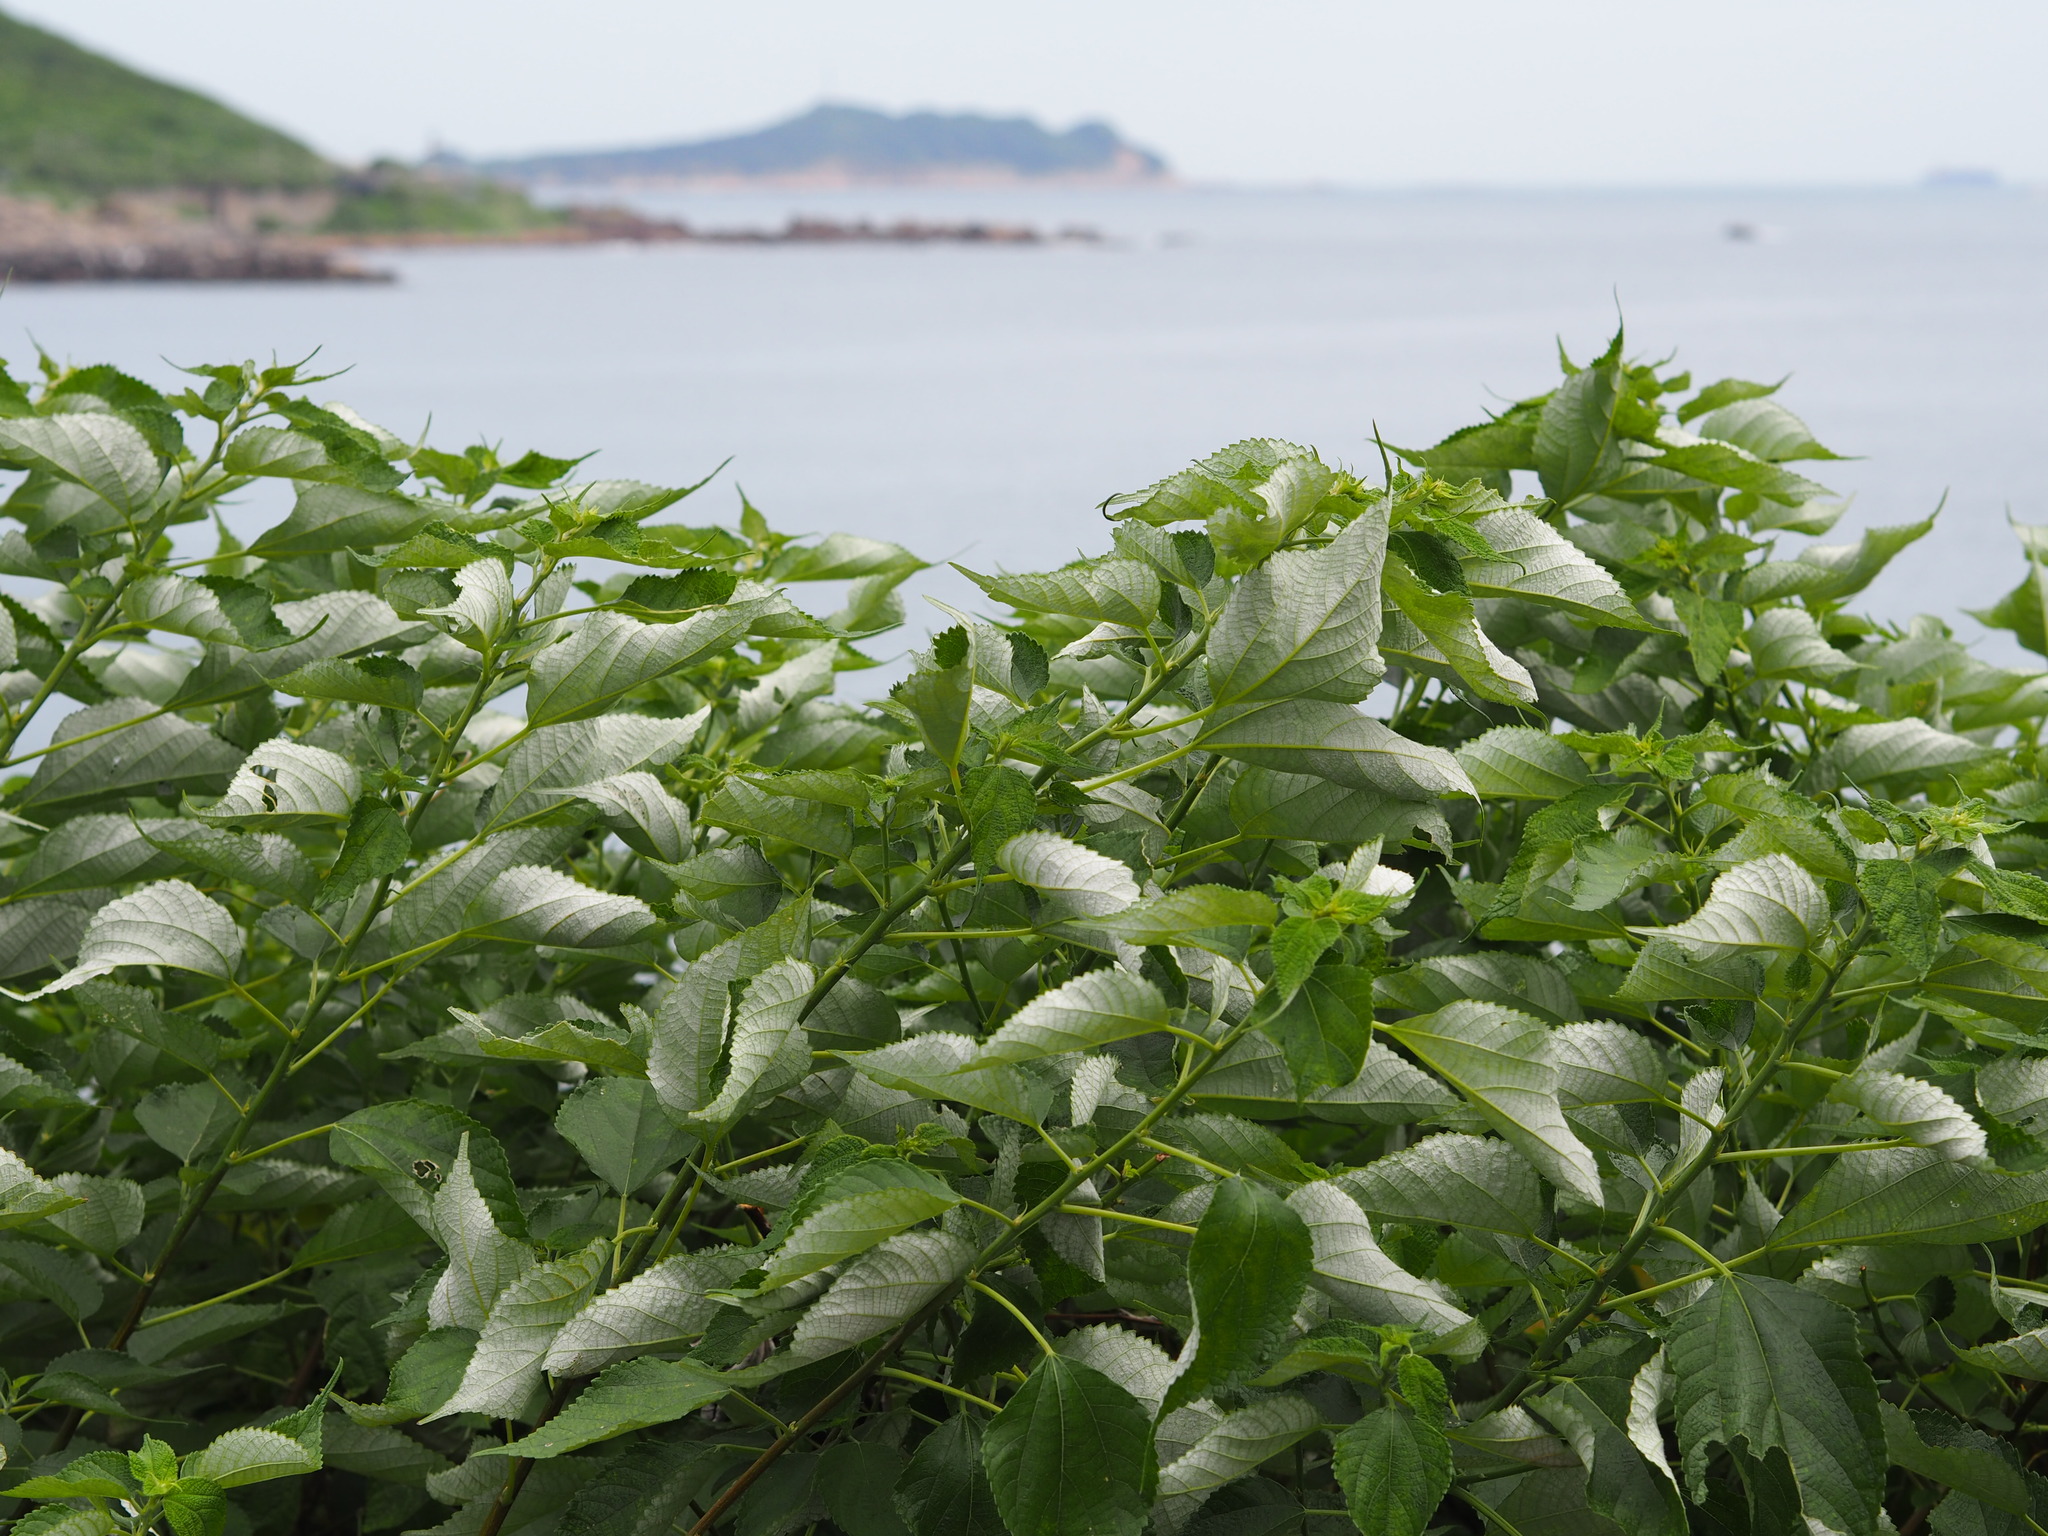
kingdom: Plantae
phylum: Tracheophyta
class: Magnoliopsida
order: Rosales
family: Urticaceae
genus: Boehmeria
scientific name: Boehmeria nivea
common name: Ramie chinese grass
